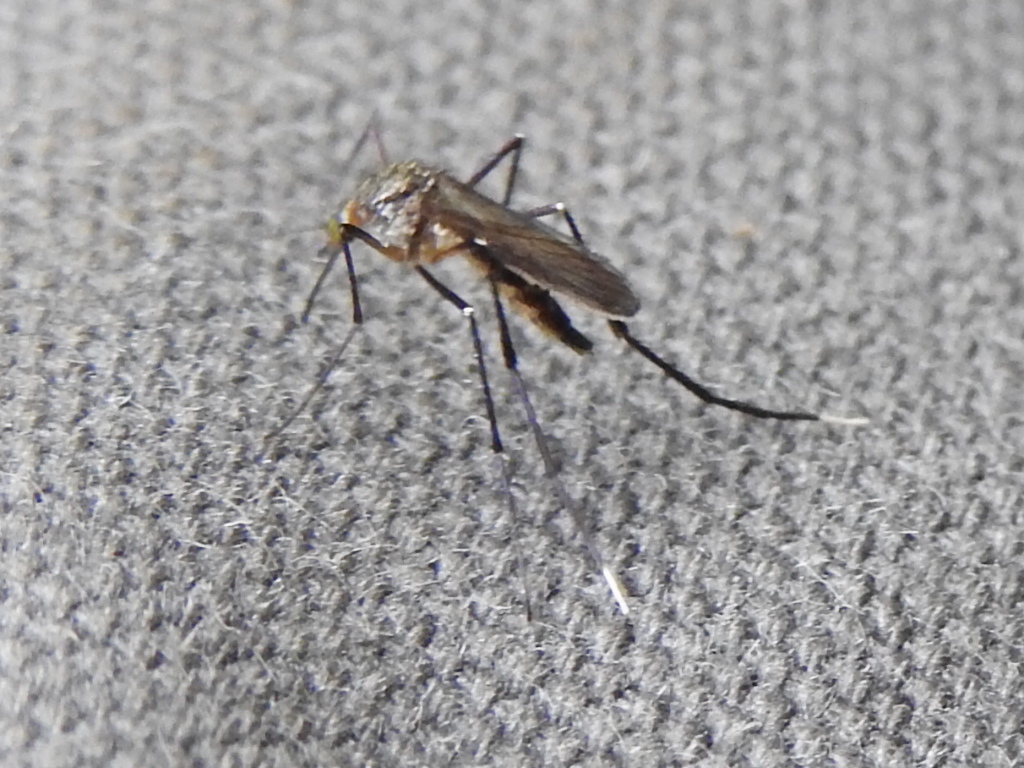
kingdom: Animalia
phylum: Arthropoda
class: Insecta
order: Diptera
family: Culicidae
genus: Psorophora
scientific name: Psorophora ferox
